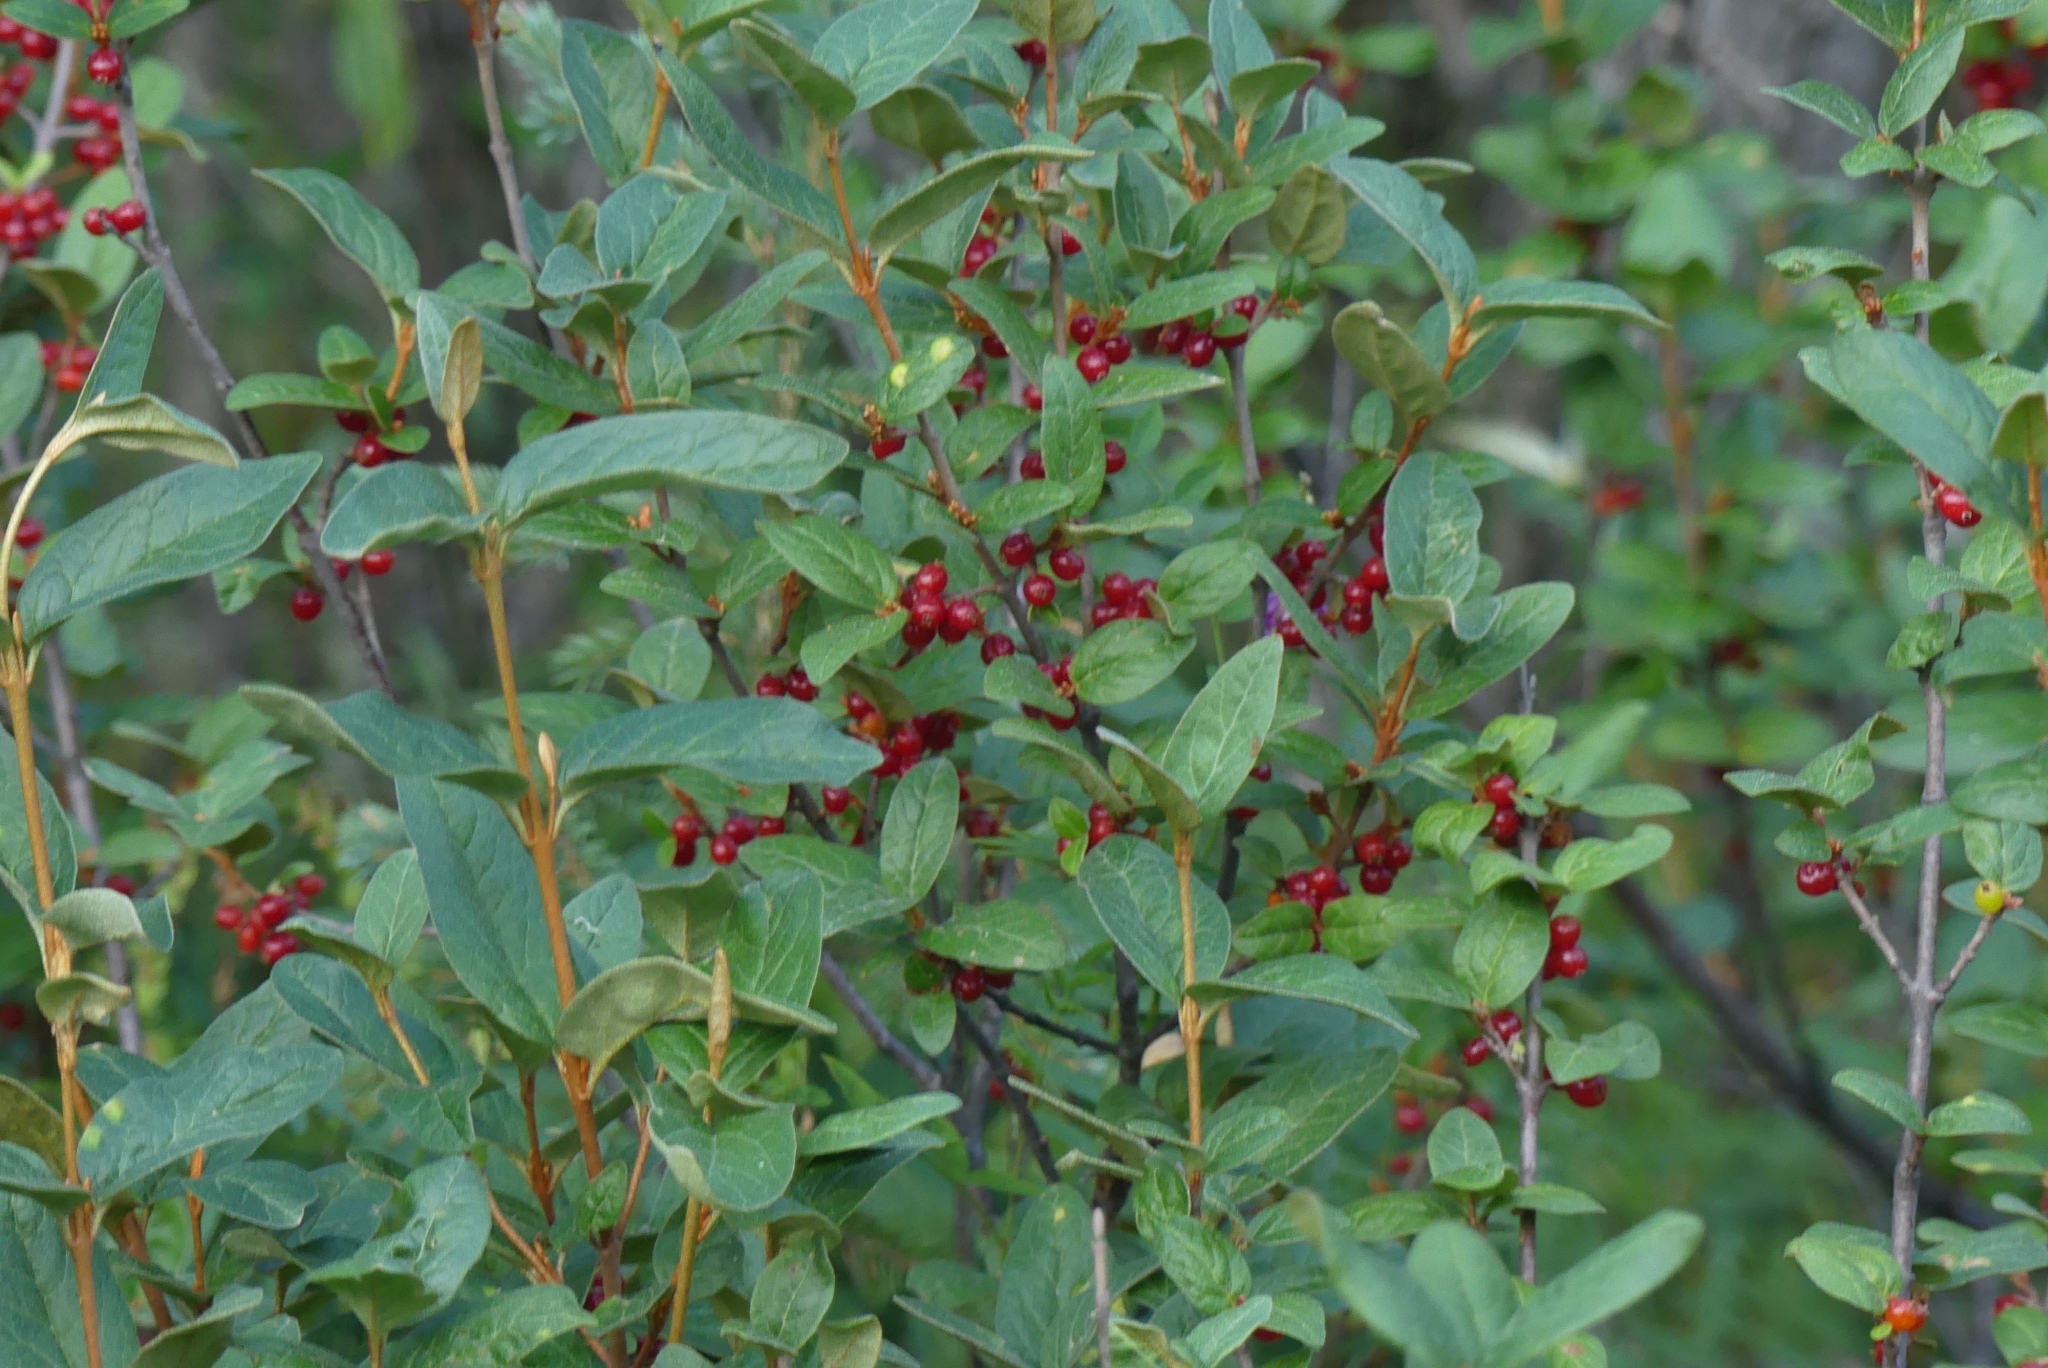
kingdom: Plantae
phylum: Tracheophyta
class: Magnoliopsida
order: Rosales
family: Elaeagnaceae
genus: Shepherdia
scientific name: Shepherdia canadensis
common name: Soapberry
